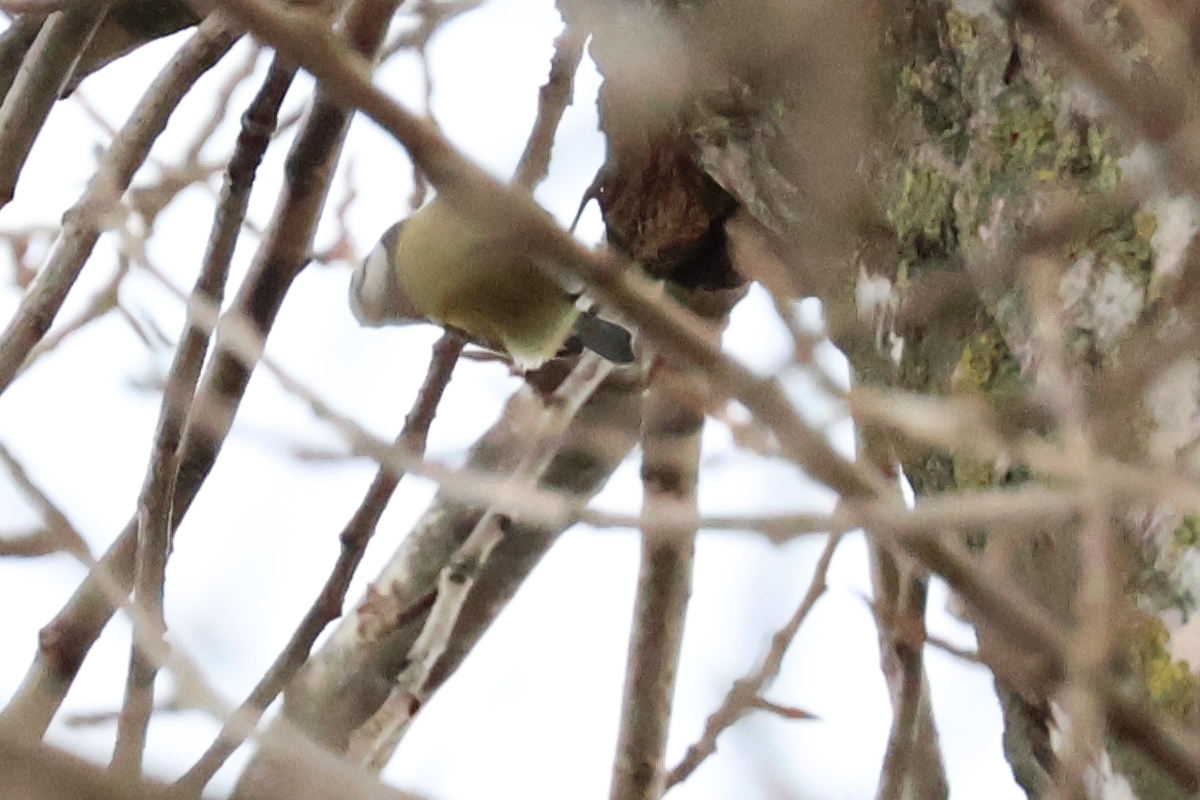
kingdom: Animalia
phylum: Chordata
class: Aves
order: Passeriformes
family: Paridae
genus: Cyanistes
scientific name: Cyanistes caeruleus
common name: Eurasian blue tit
